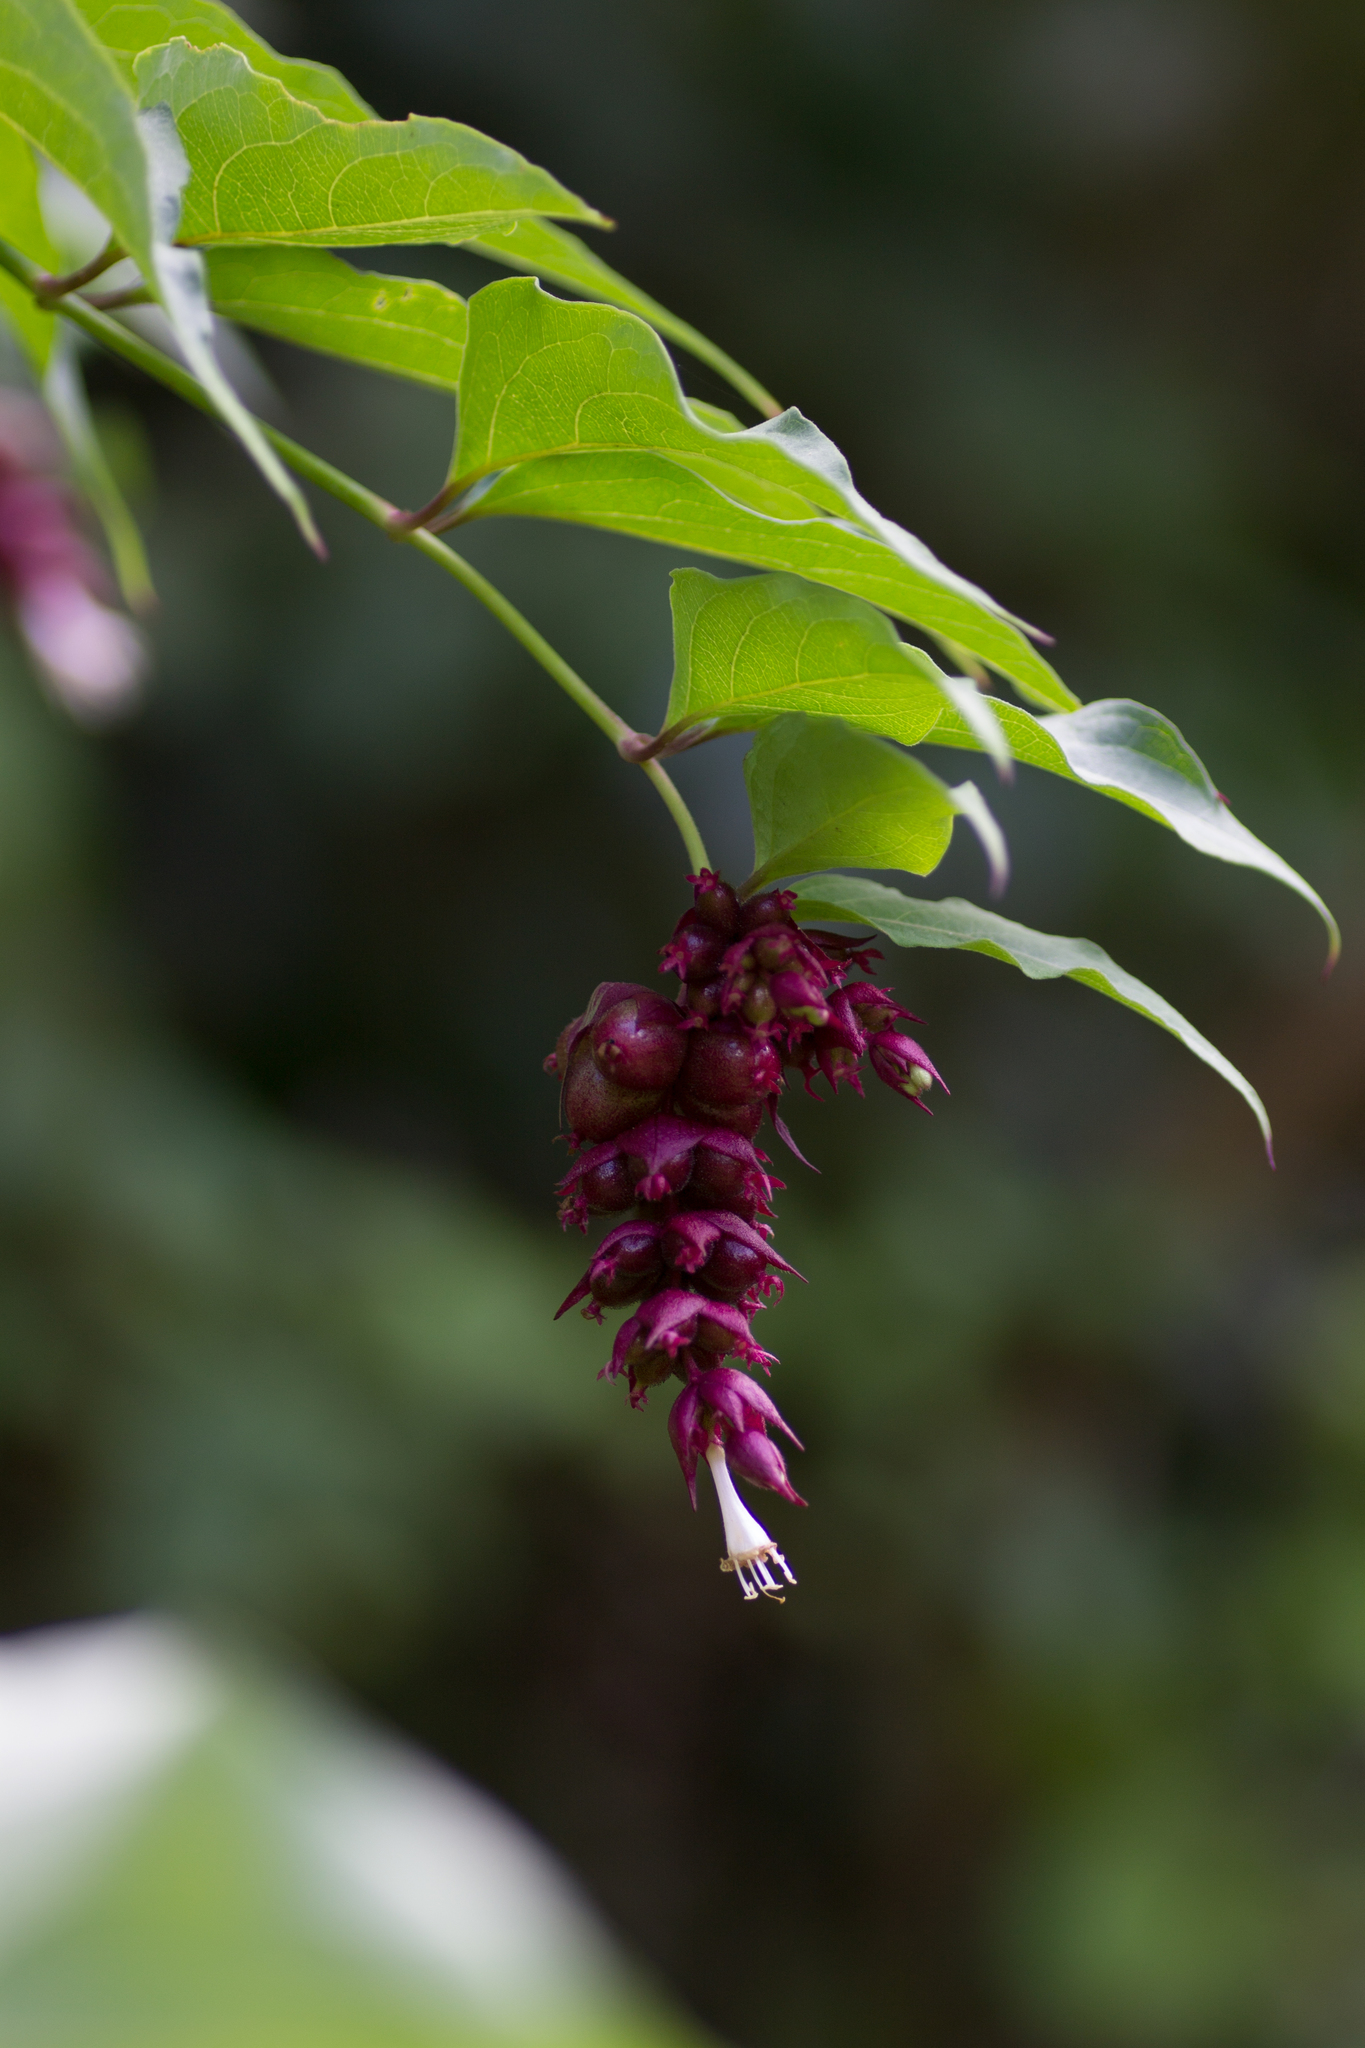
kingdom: Plantae
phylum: Tracheophyta
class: Magnoliopsida
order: Dipsacales
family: Caprifoliaceae
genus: Leycesteria
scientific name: Leycesteria formosa
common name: Himalayan honeysuckle
